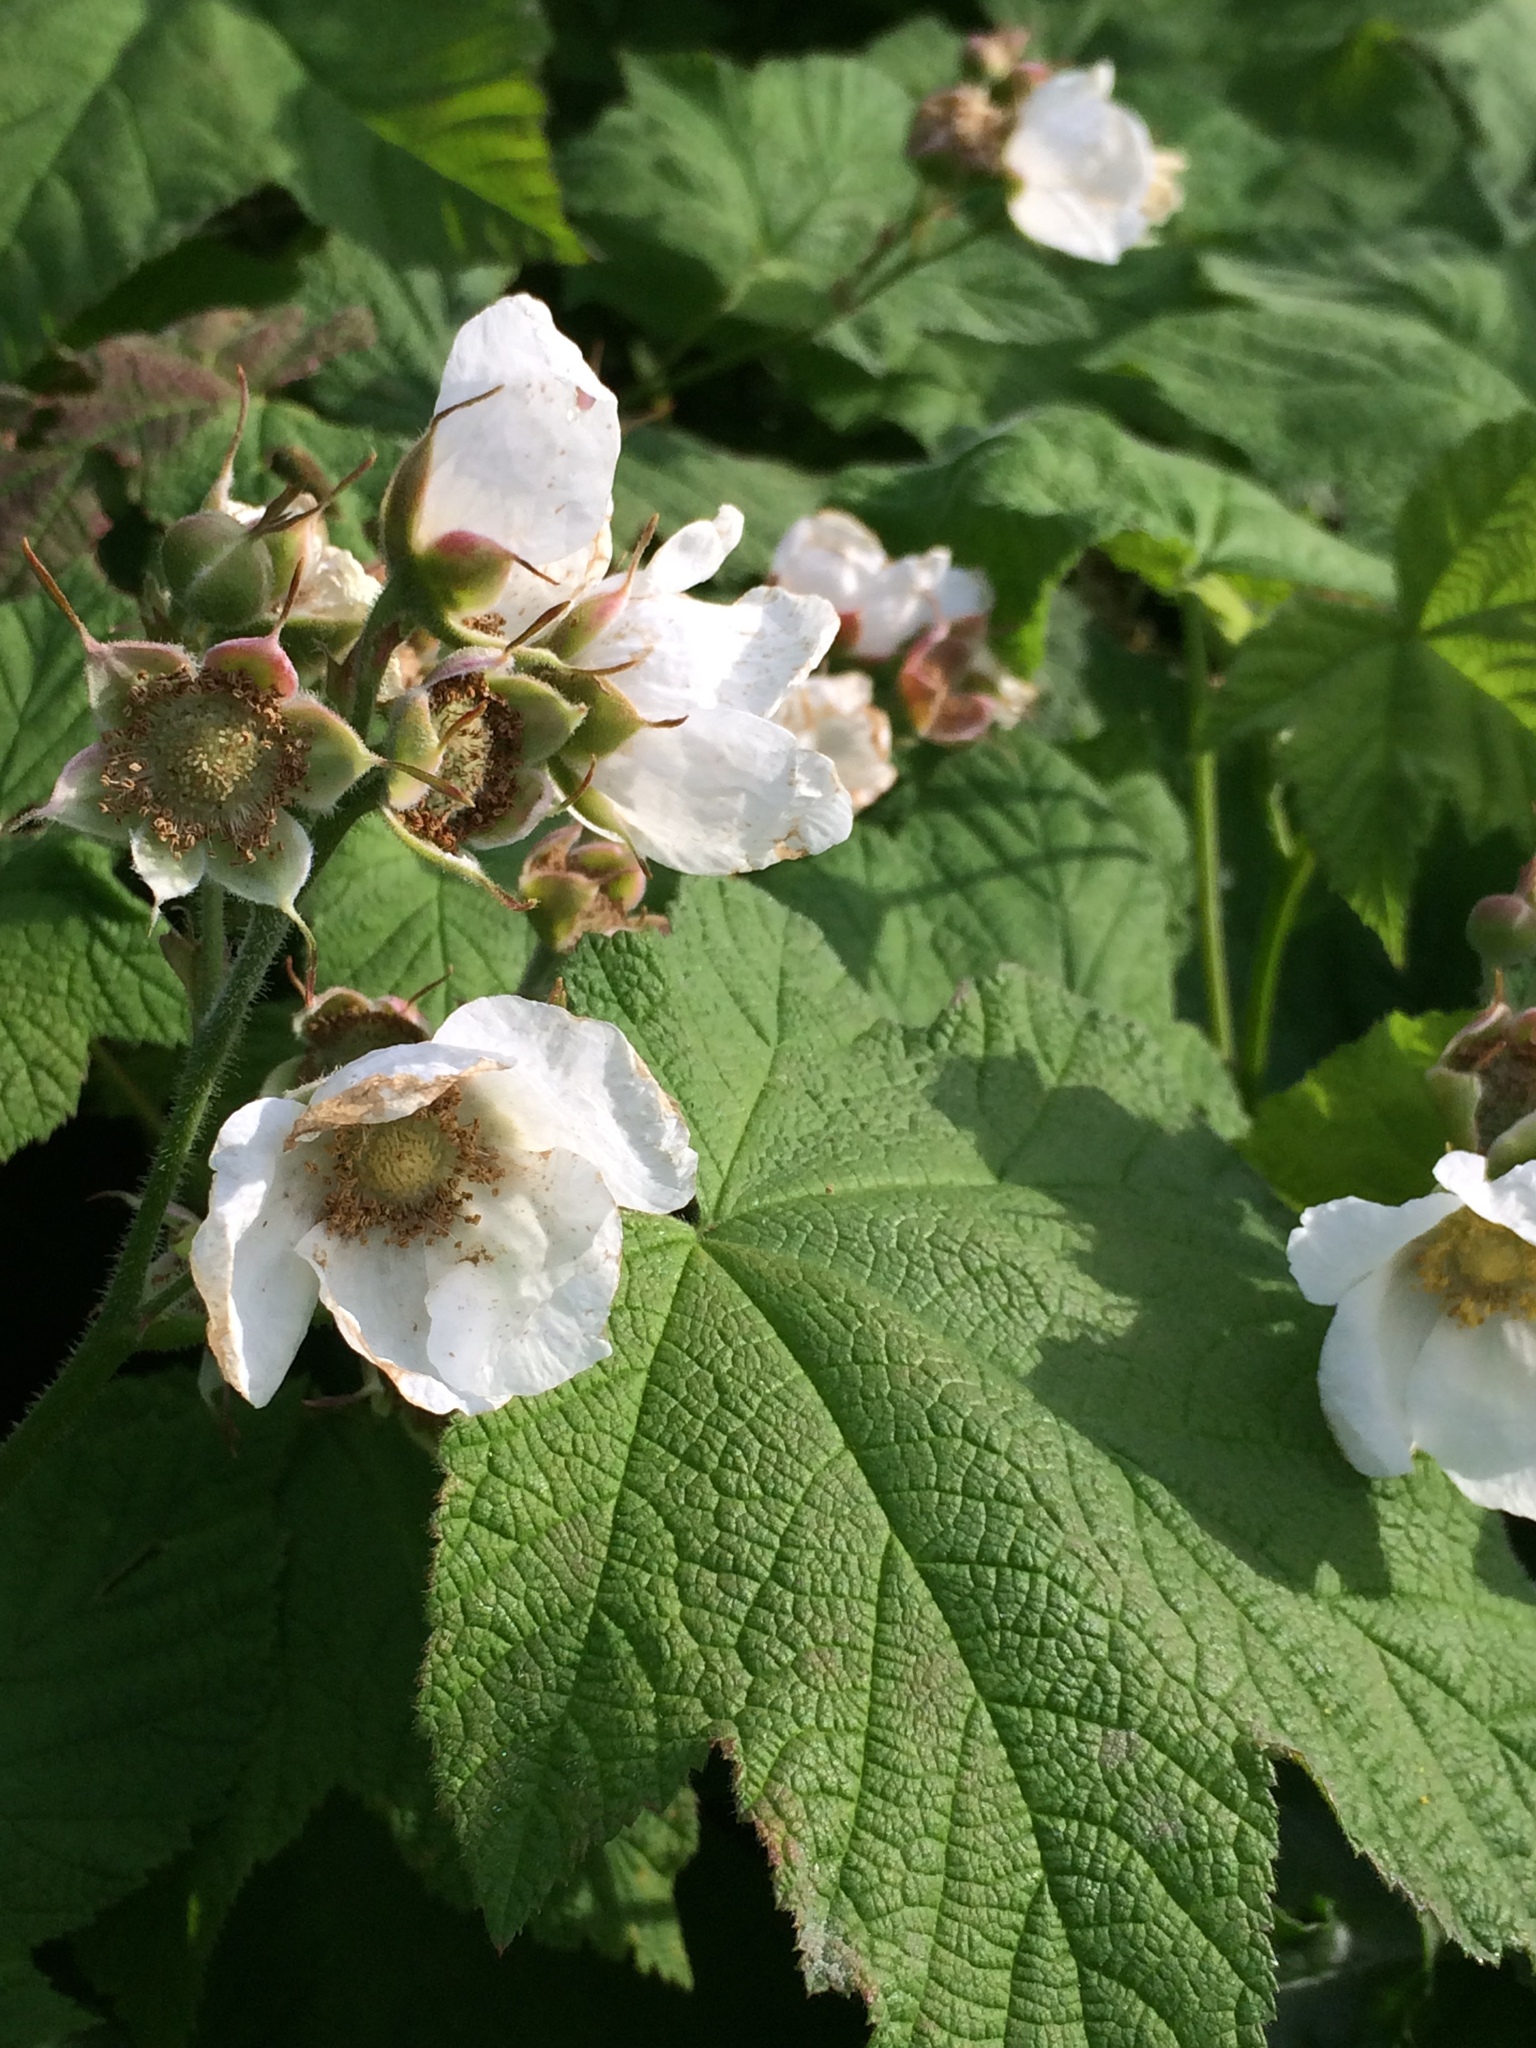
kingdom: Plantae
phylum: Tracheophyta
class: Magnoliopsida
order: Rosales
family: Rosaceae
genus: Rubus
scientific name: Rubus parviflorus
